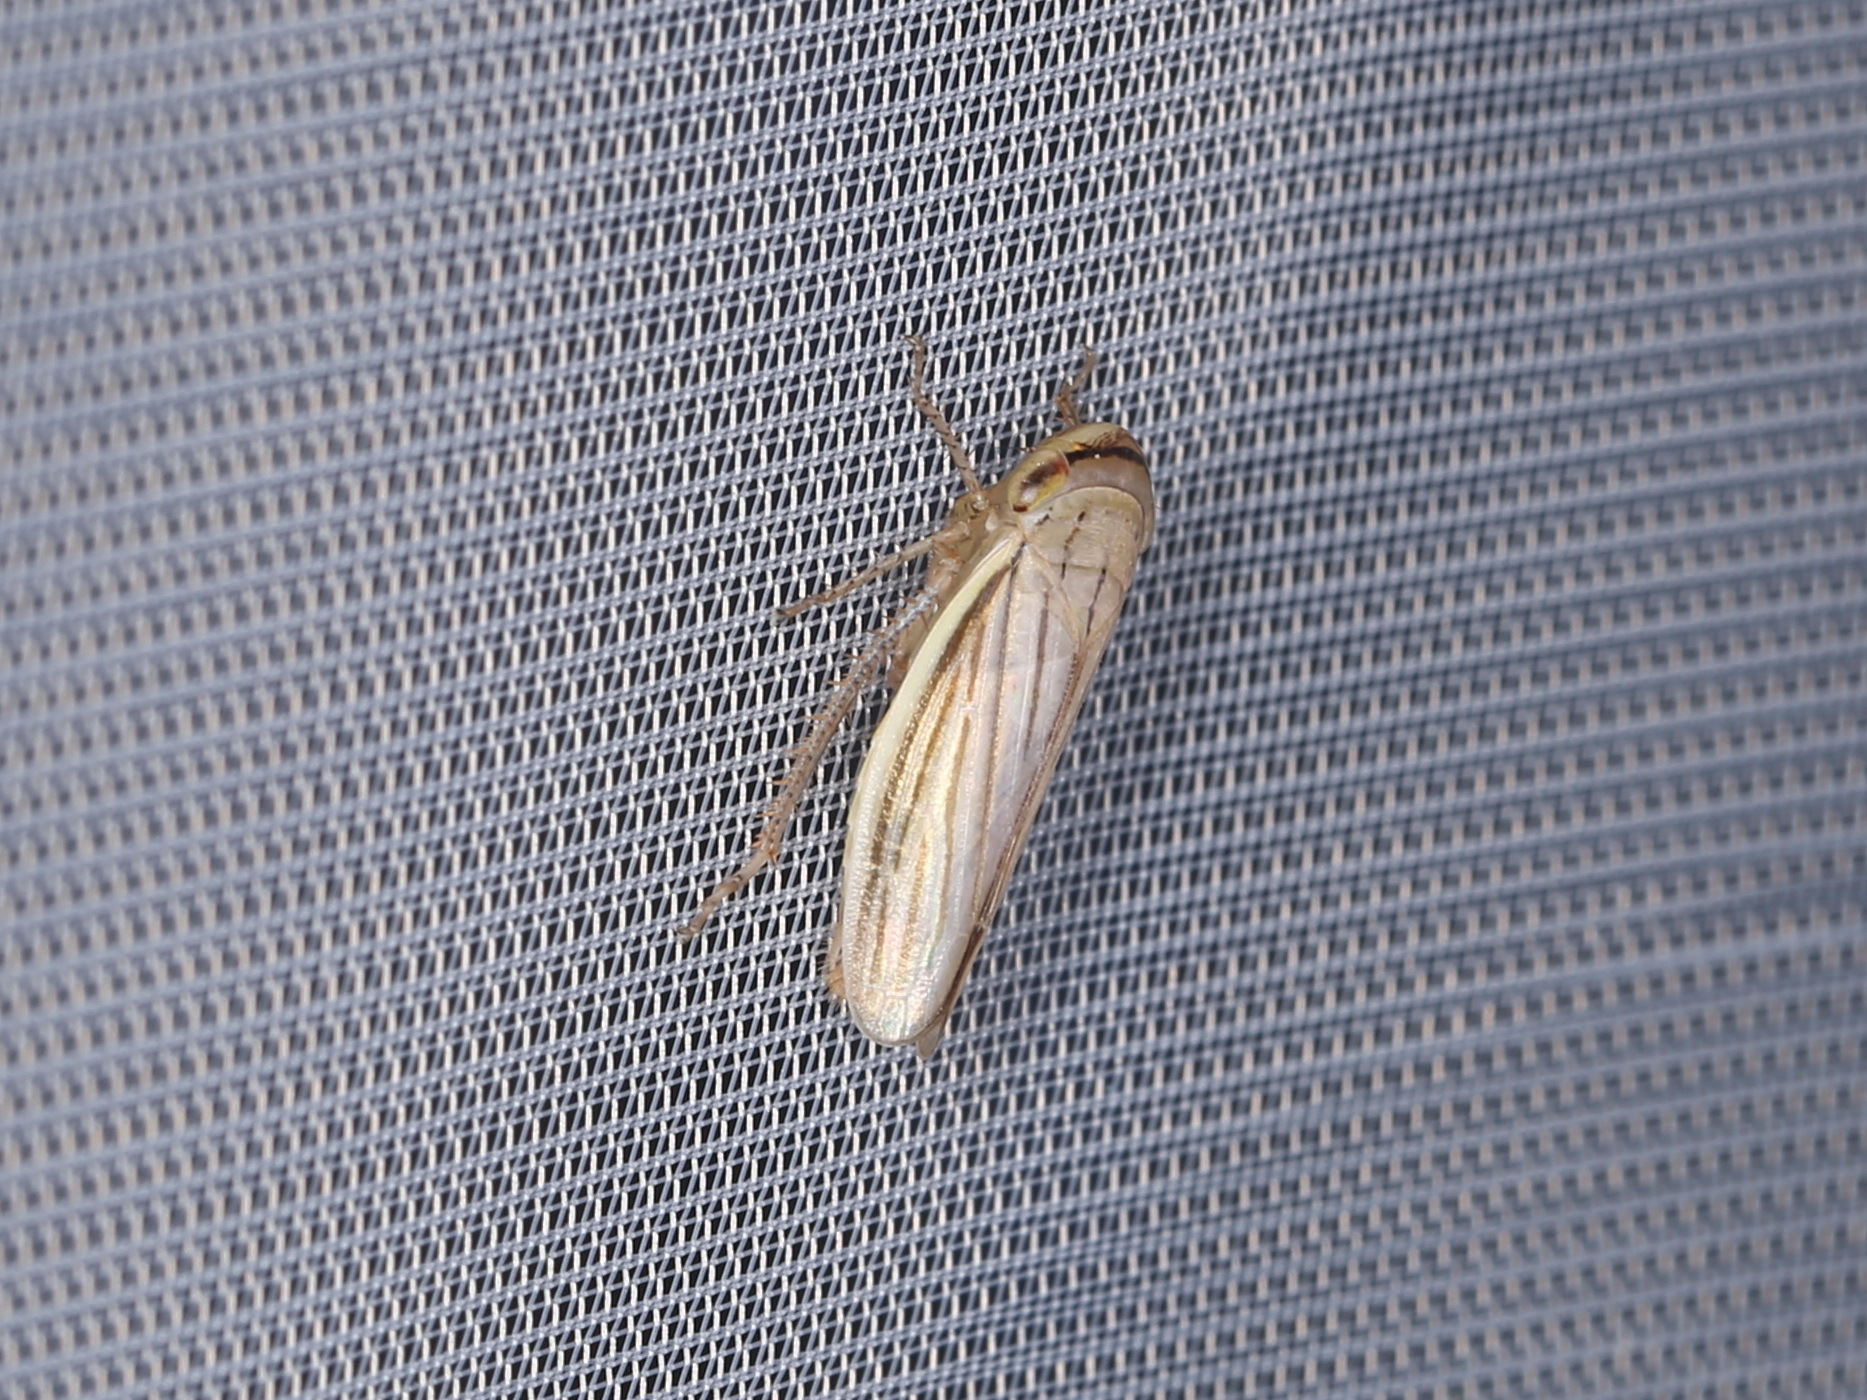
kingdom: Animalia
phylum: Arthropoda
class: Insecta
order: Hemiptera
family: Cicadellidae
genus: Athysanus
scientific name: Athysanus argentarius
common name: Silver leafhopper
